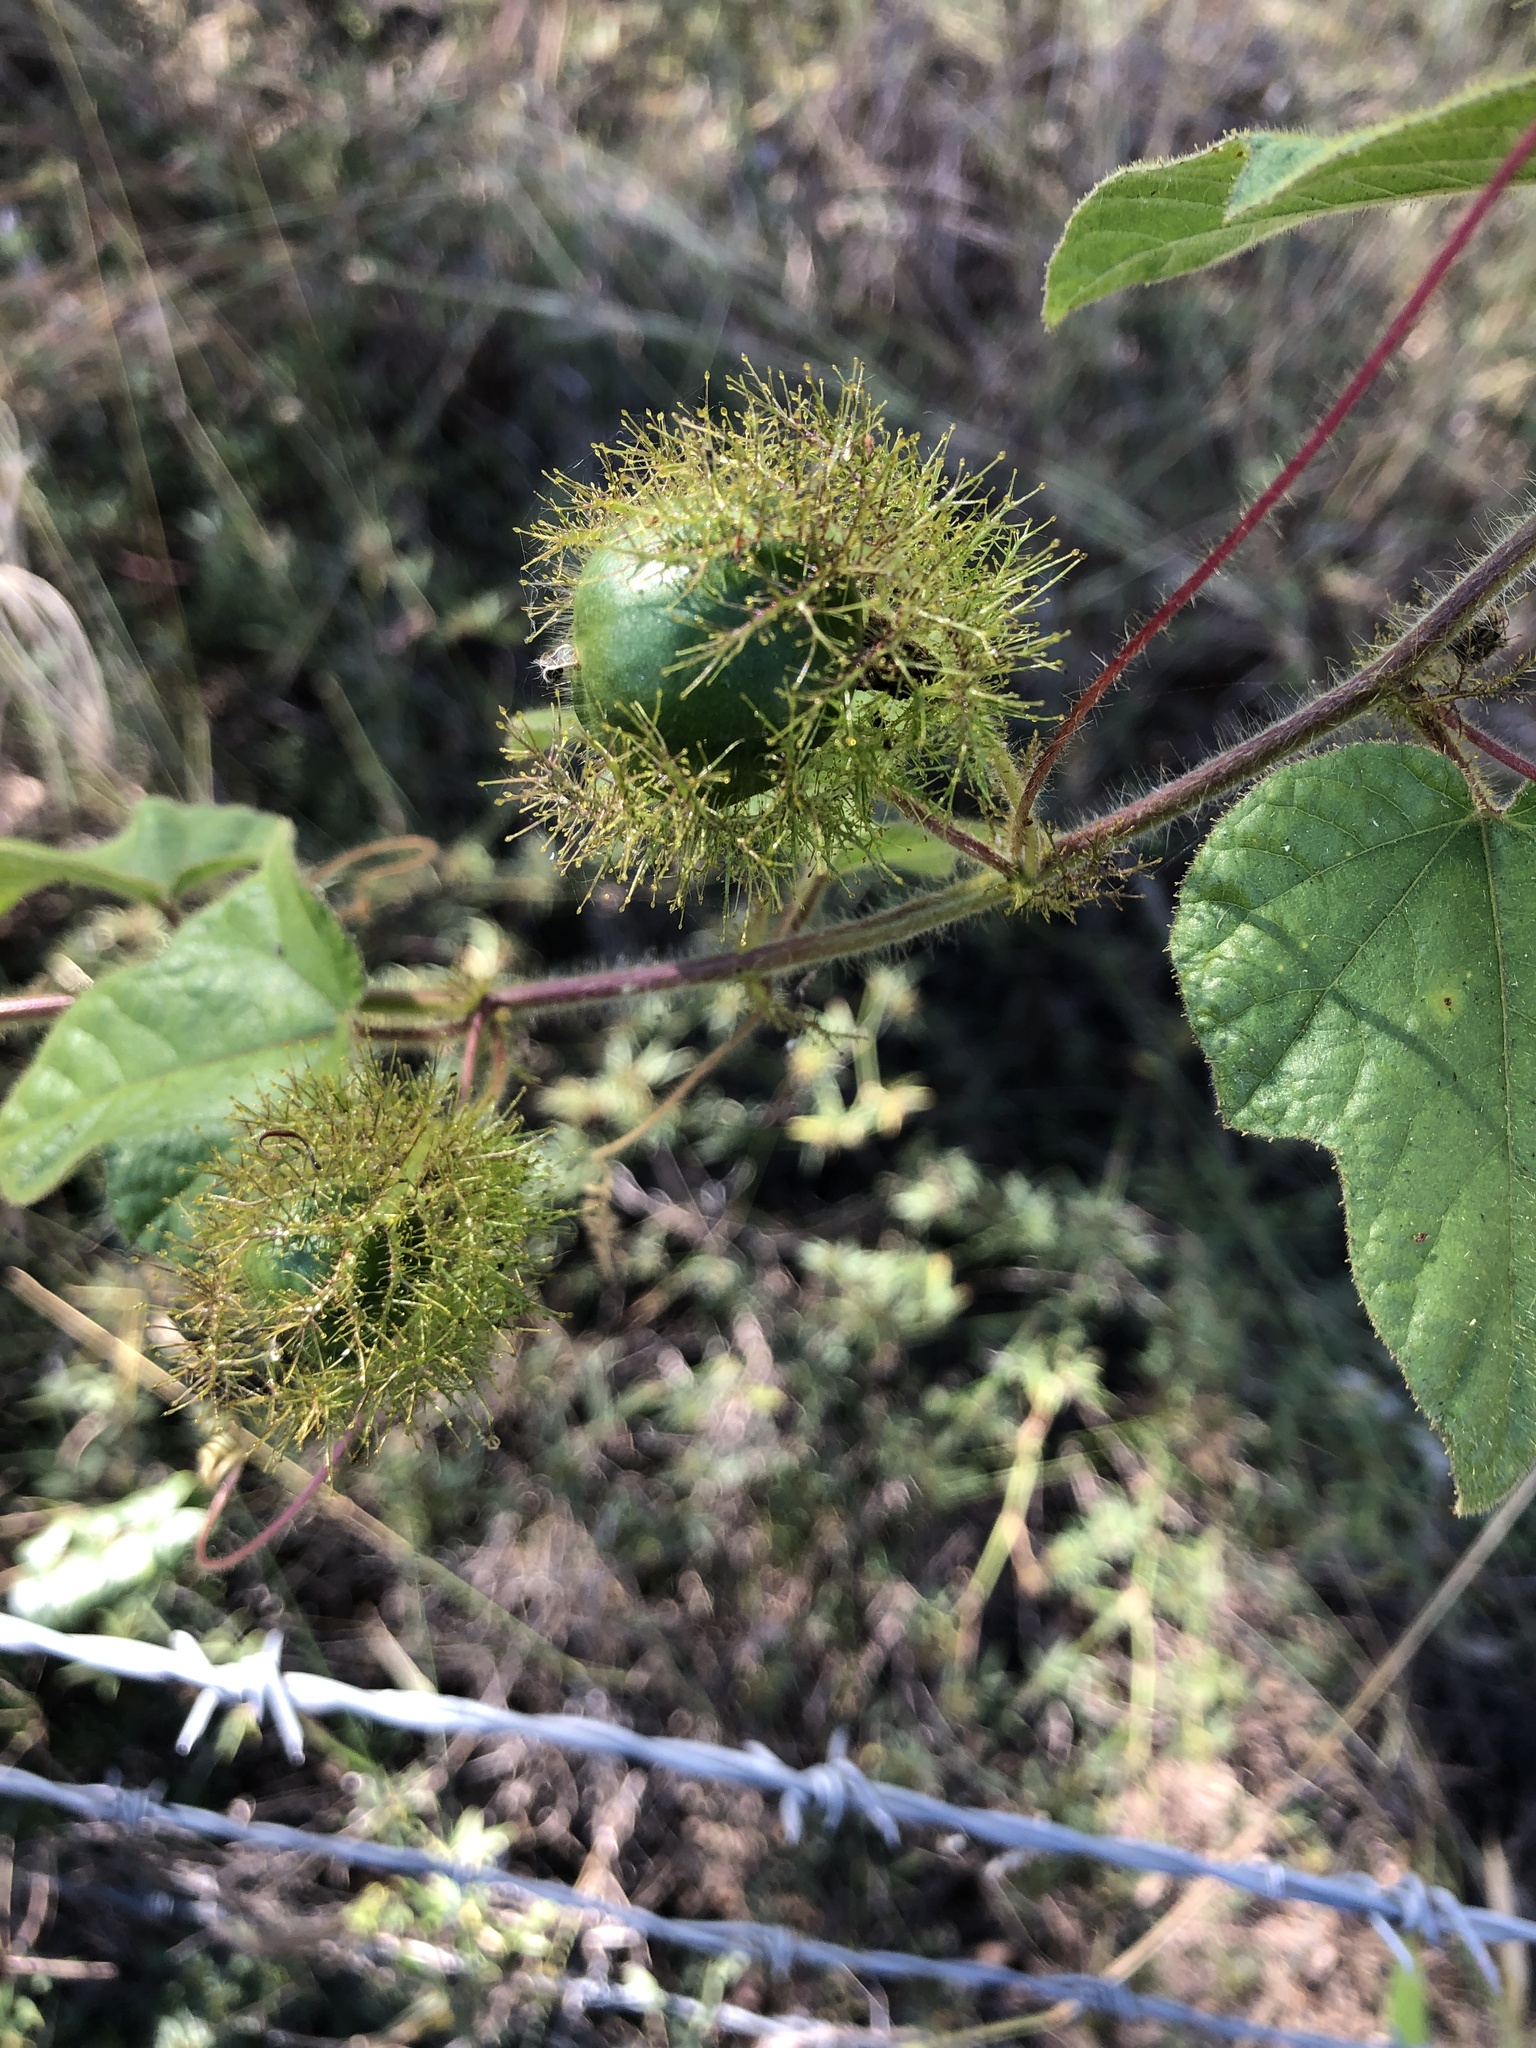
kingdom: Plantae
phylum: Tracheophyta
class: Magnoliopsida
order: Malpighiales
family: Passifloraceae
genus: Passiflora
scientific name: Passiflora foetida
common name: Fetid passionflower
